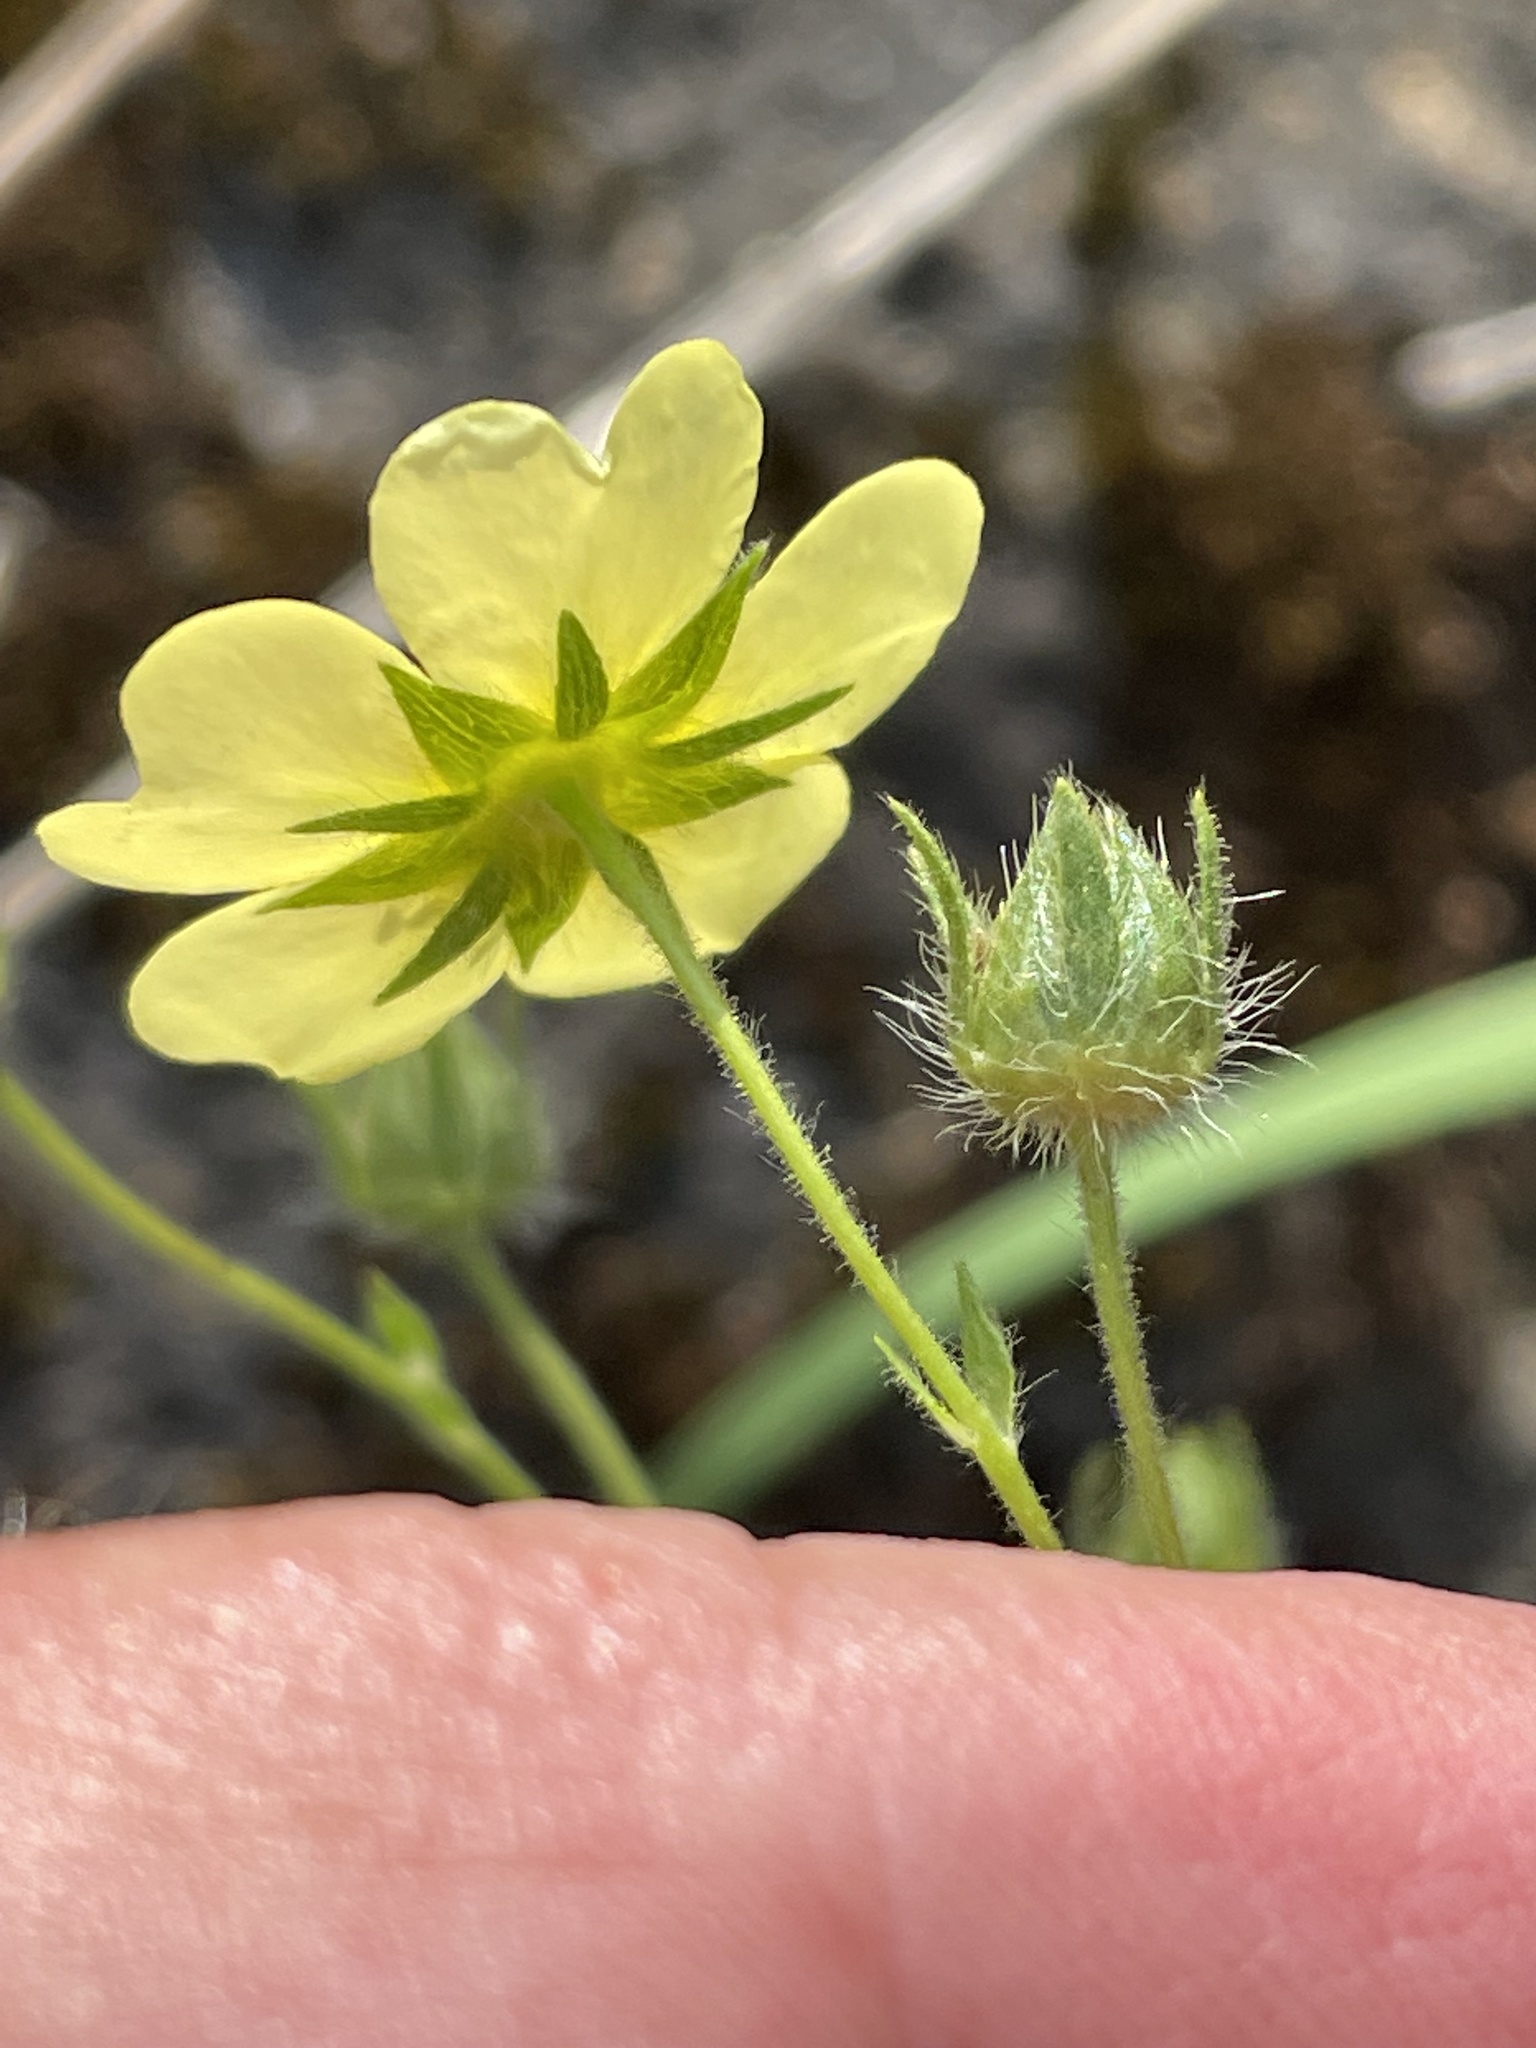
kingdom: Plantae
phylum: Tracheophyta
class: Magnoliopsida
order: Rosales
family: Rosaceae
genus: Potentilla
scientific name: Potentilla recta
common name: Sulphur cinquefoil
